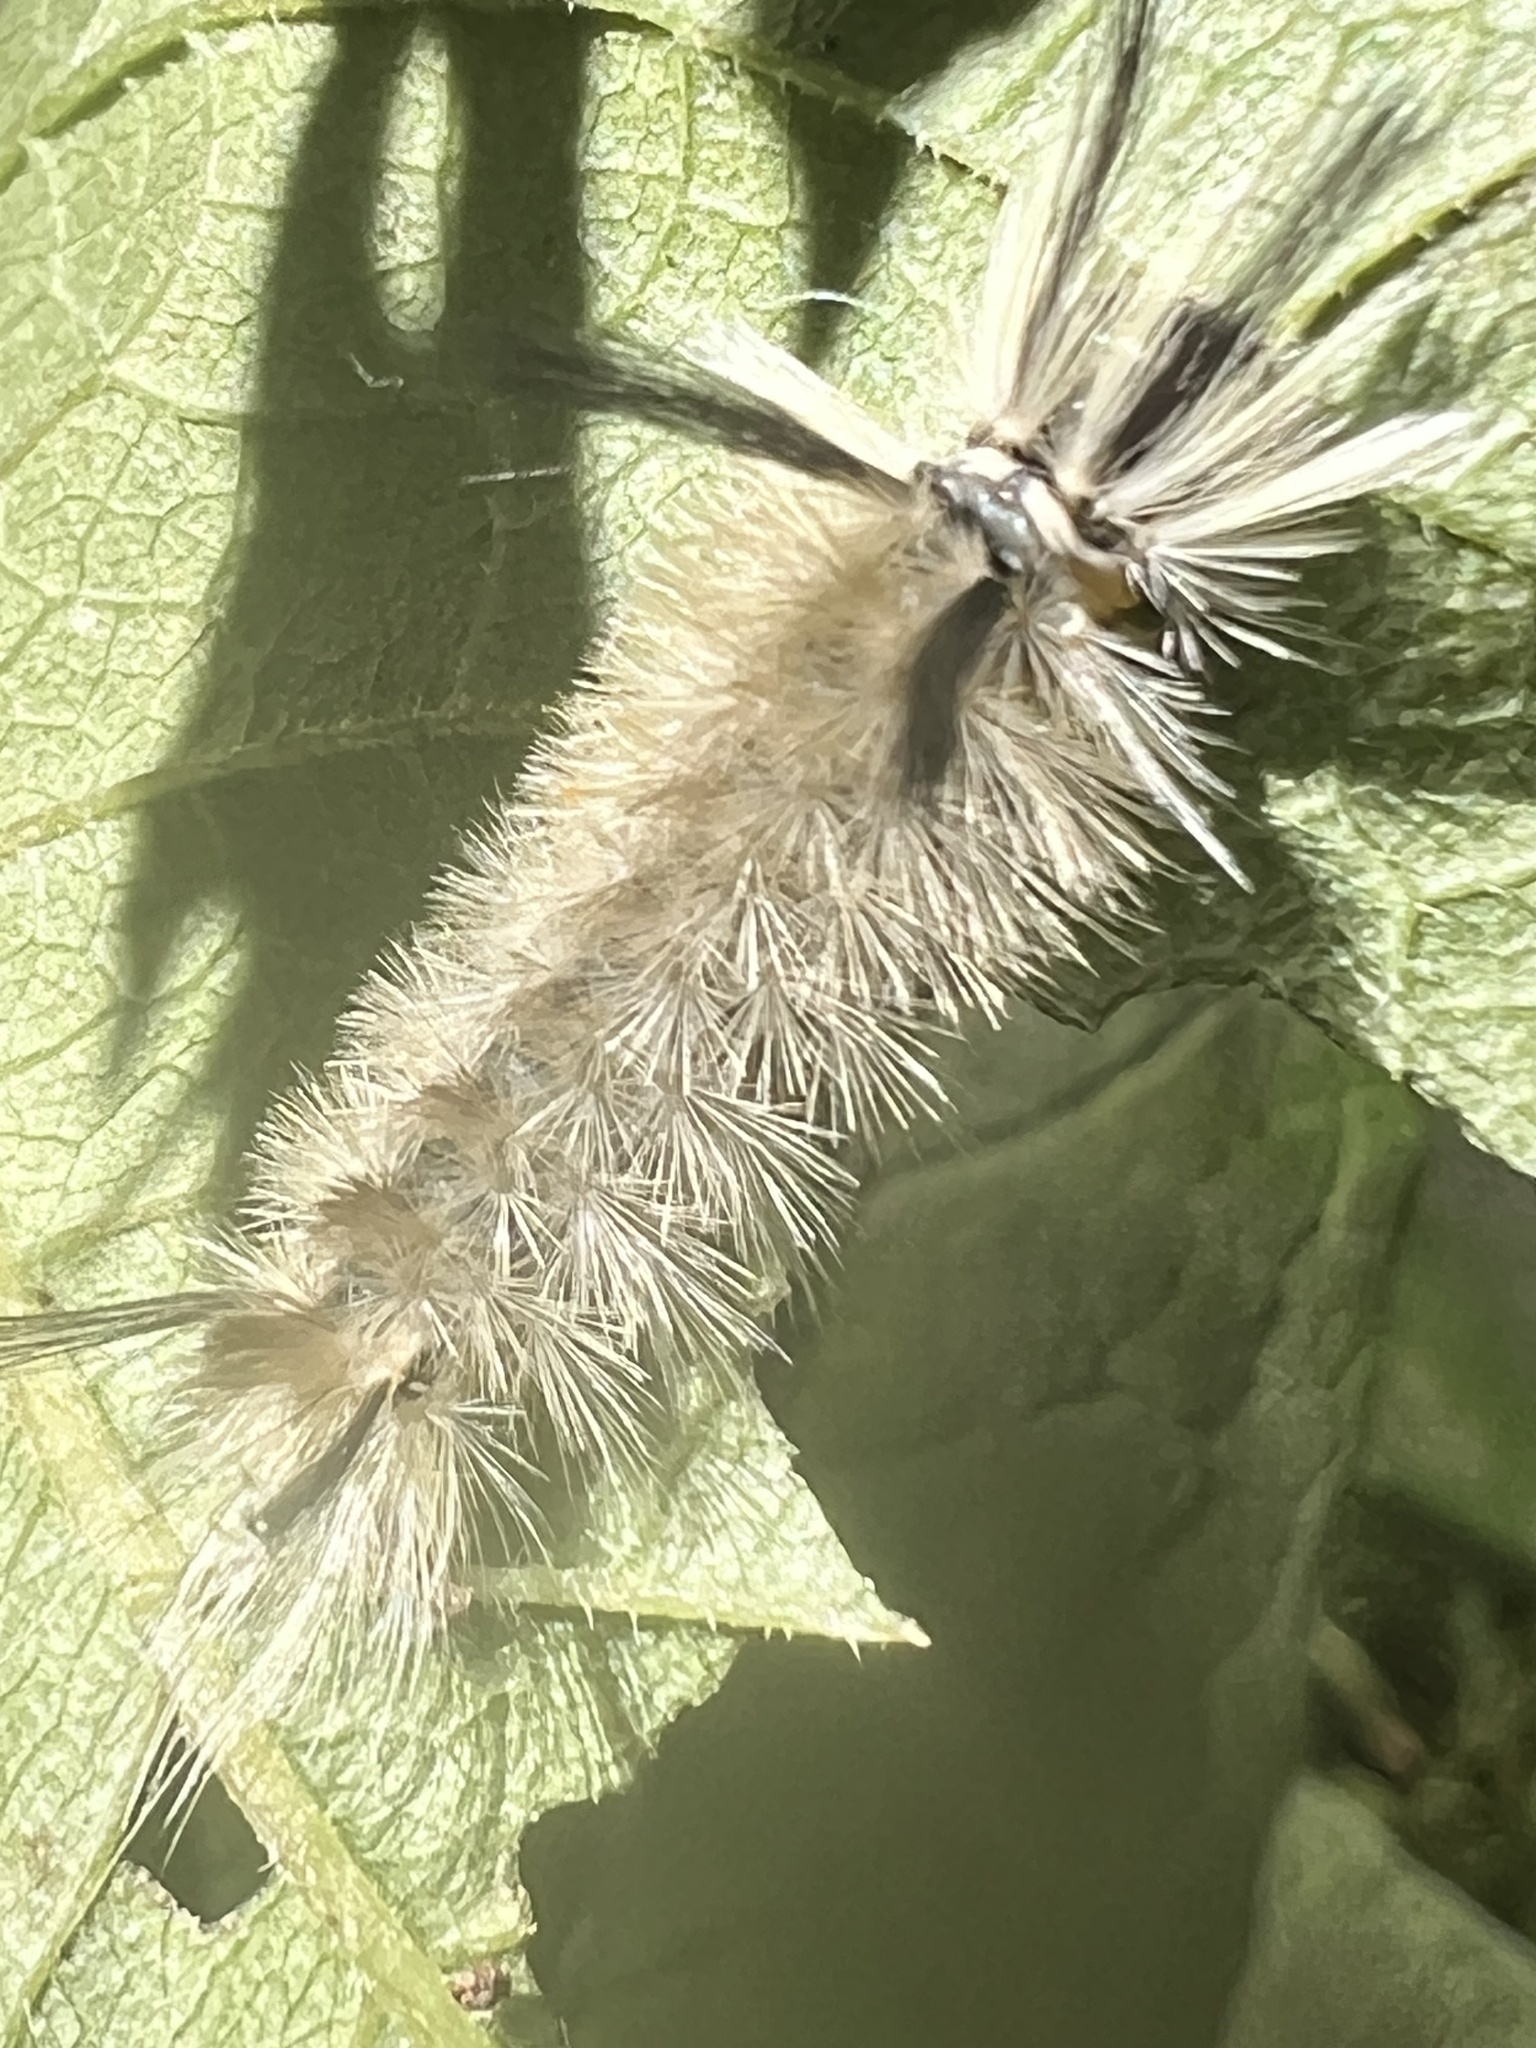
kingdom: Animalia
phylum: Arthropoda
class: Insecta
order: Lepidoptera
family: Erebidae
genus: Halysidota
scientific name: Halysidota tessellaris
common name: Banded tussock moth
